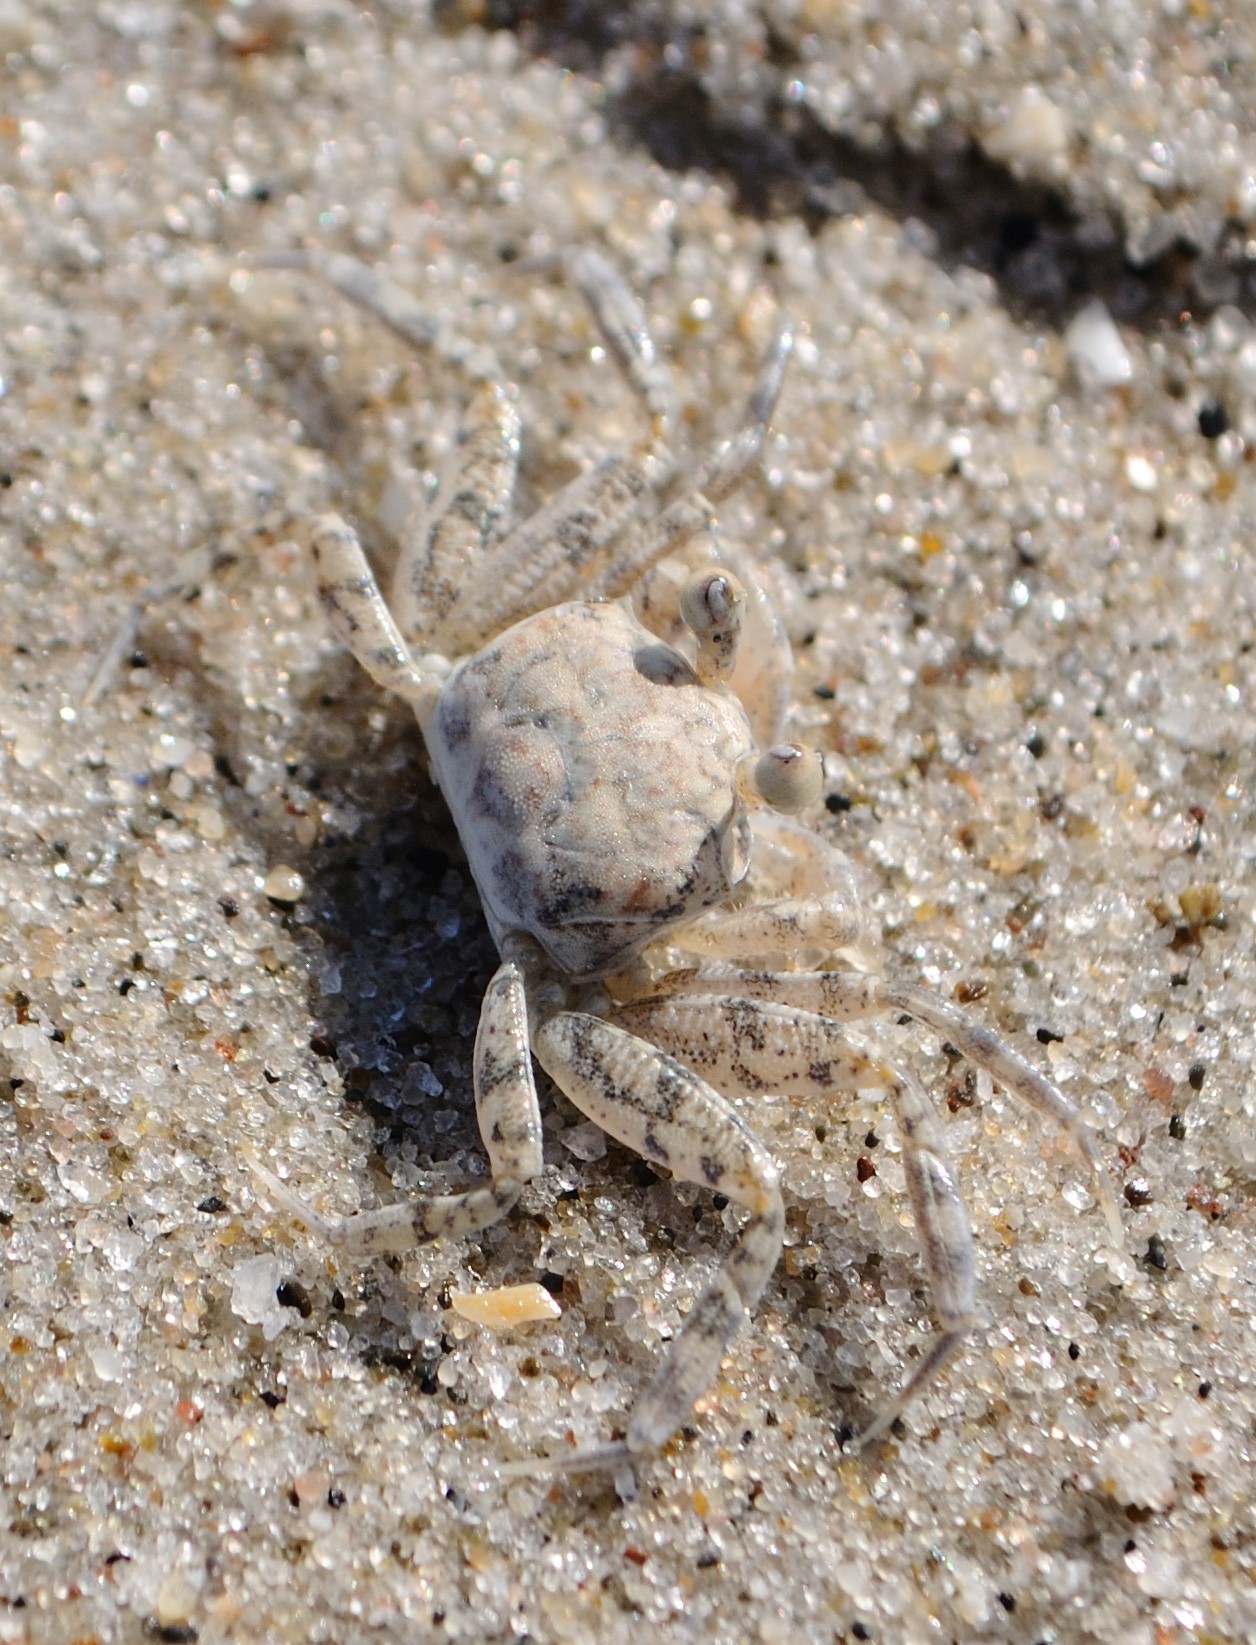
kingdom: Animalia
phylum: Arthropoda
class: Malacostraca
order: Decapoda
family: Ocypodidae
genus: Ocypode
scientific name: Ocypode quadrata
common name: Ghost crab
